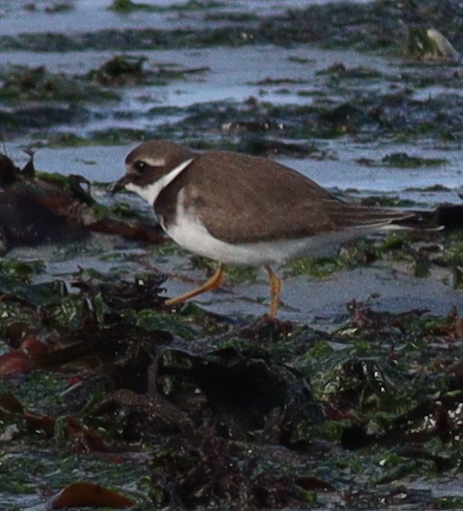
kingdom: Animalia
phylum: Chordata
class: Aves
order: Charadriiformes
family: Charadriidae
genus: Charadrius
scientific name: Charadrius hiaticula
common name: Common ringed plover
